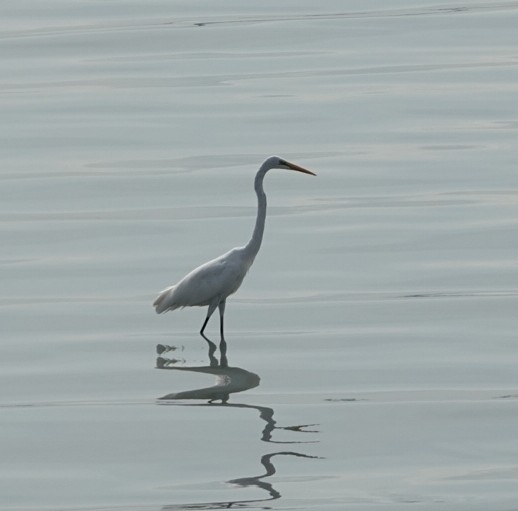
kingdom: Animalia
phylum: Chordata
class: Aves
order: Pelecaniformes
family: Ardeidae
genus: Ardea
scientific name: Ardea alba
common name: Great egret
